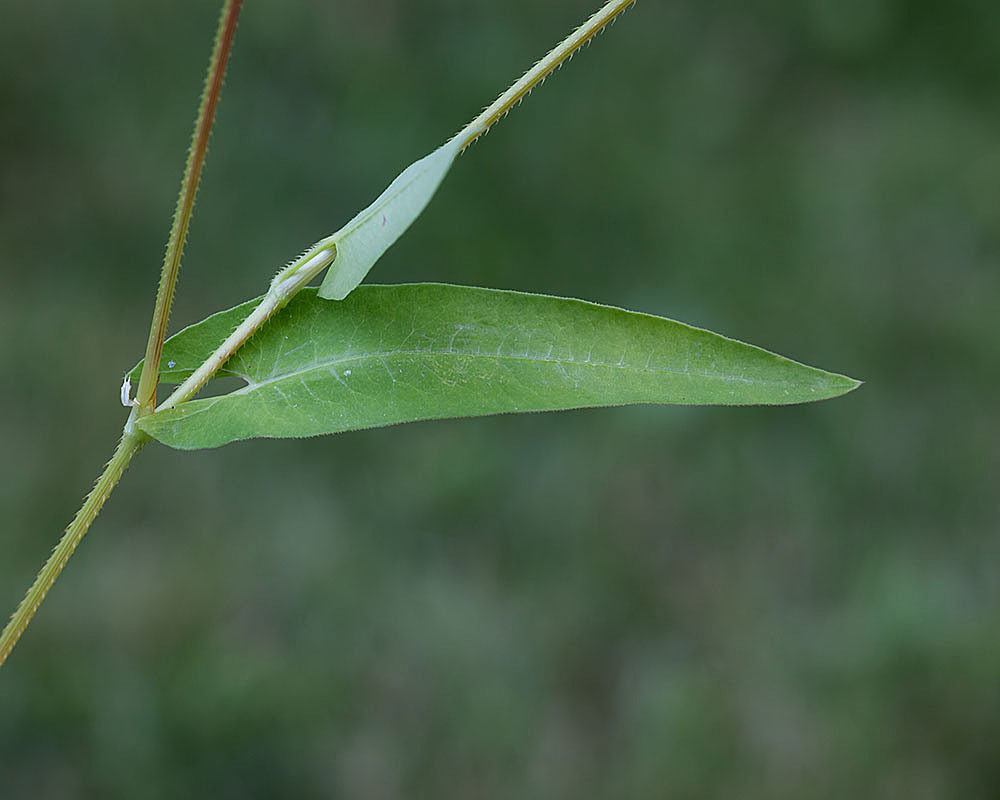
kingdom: Plantae
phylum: Tracheophyta
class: Magnoliopsida
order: Caryophyllales
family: Polygonaceae
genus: Persicaria
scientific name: Persicaria sagittata
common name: American tearthumb
